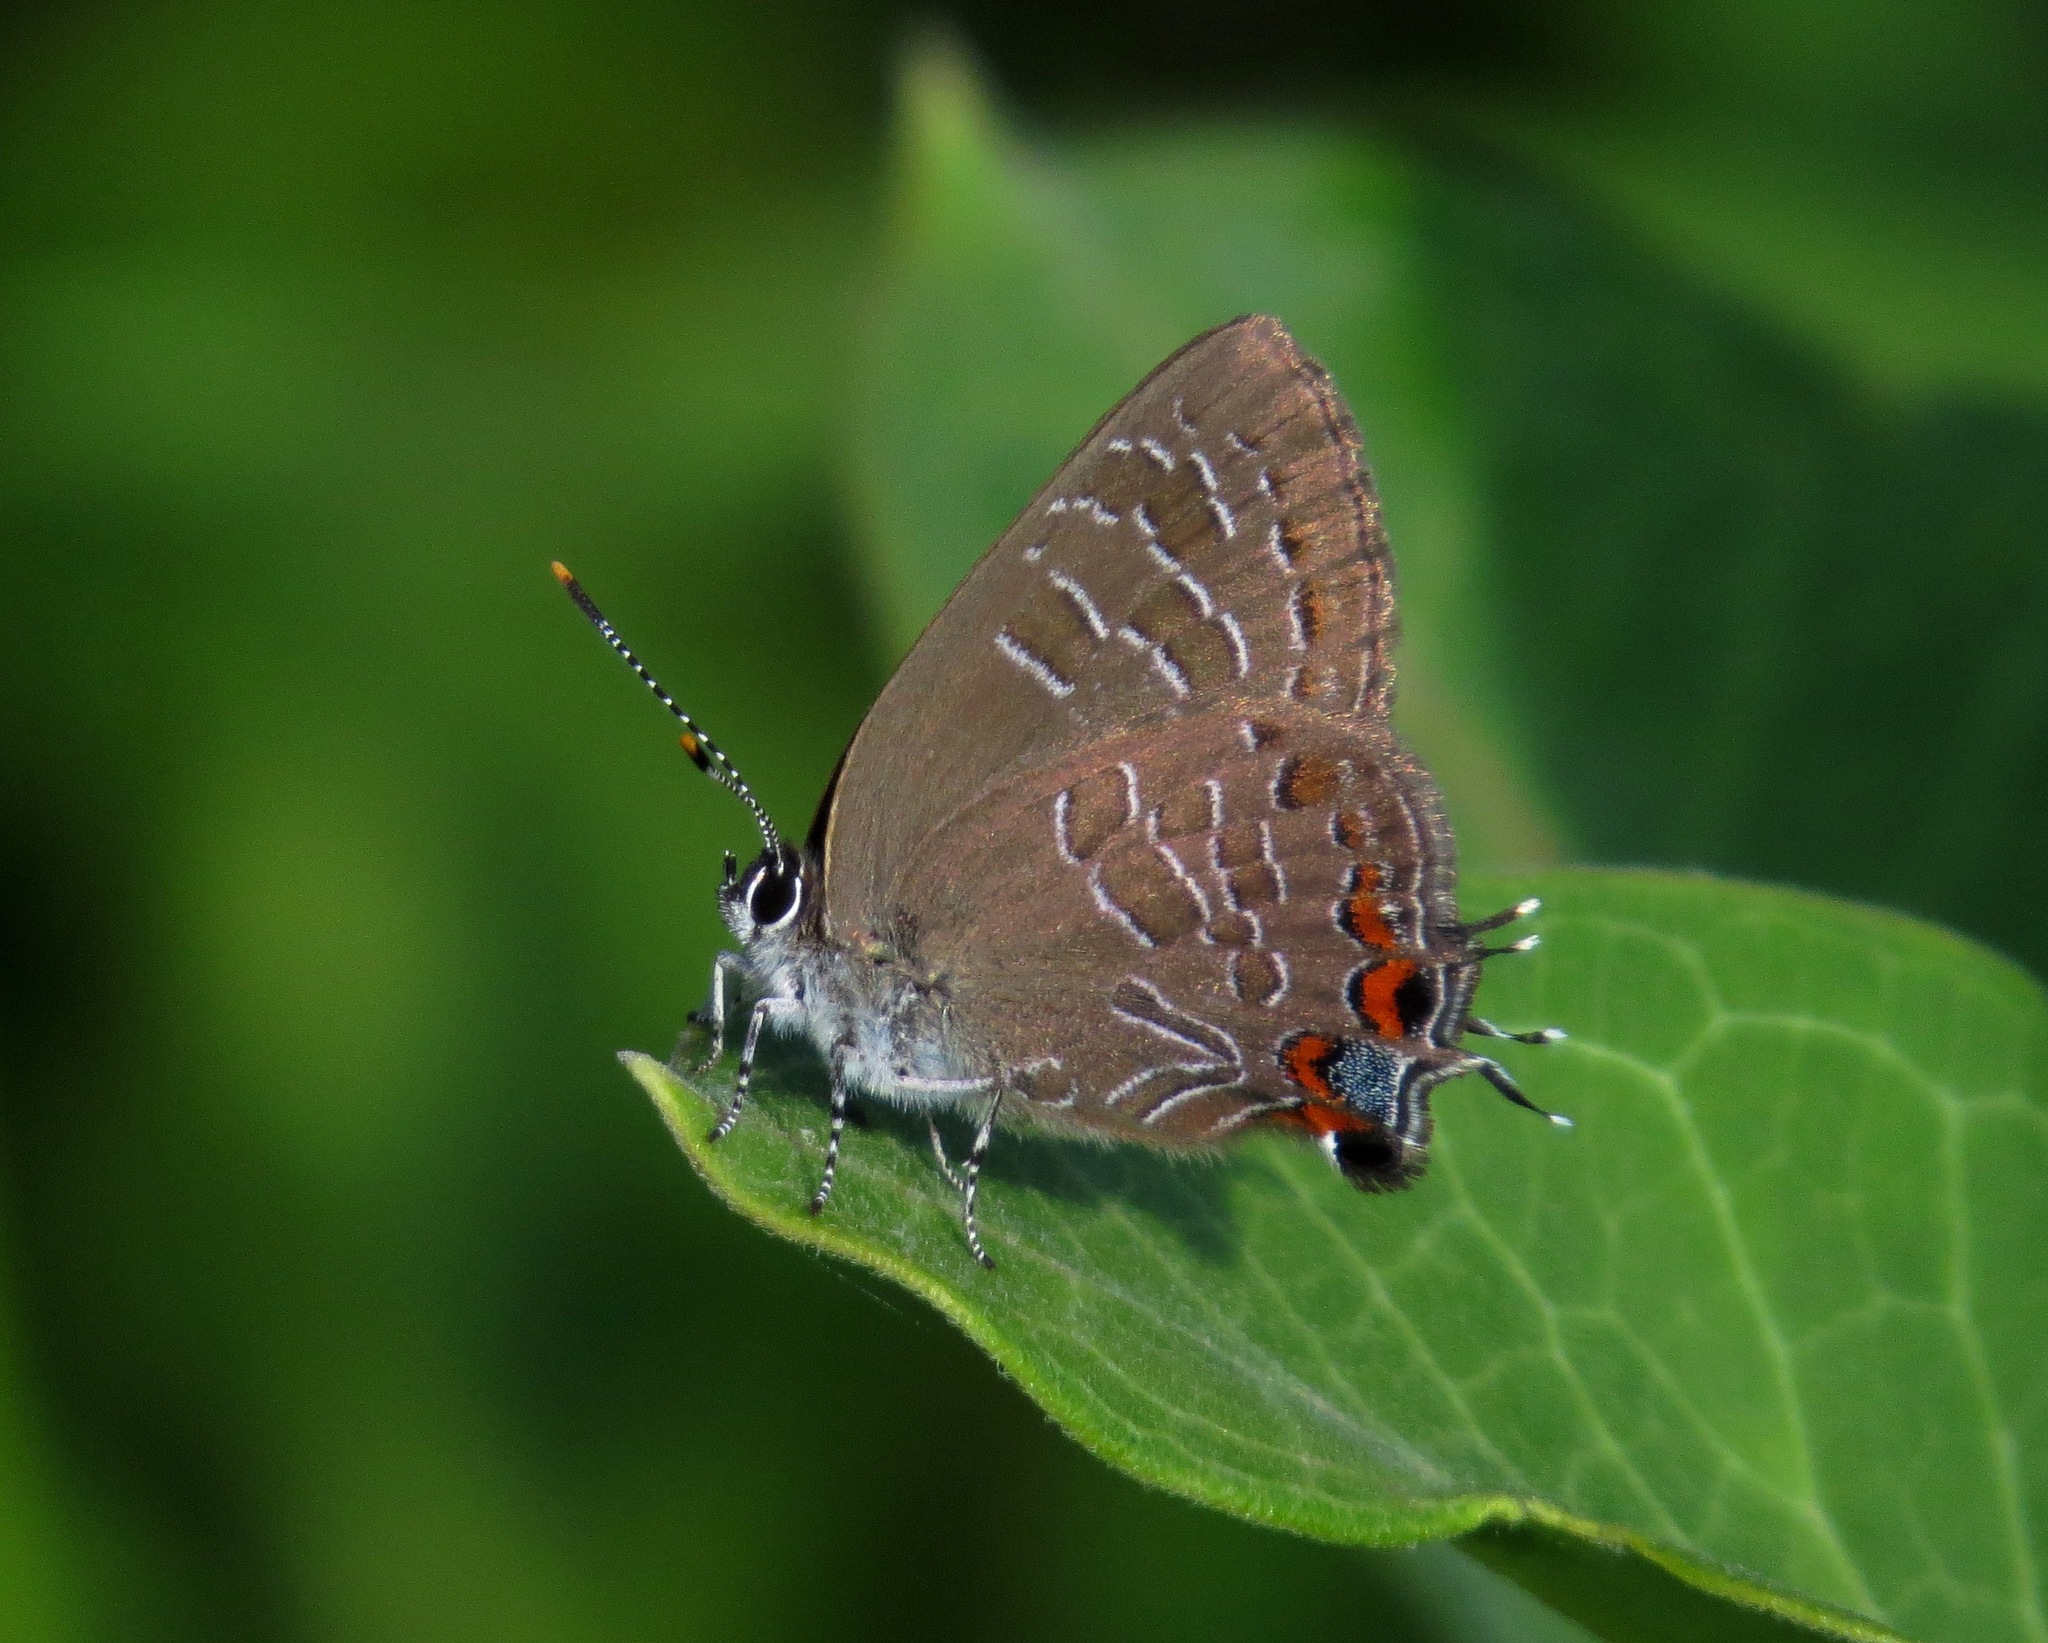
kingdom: Animalia
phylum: Arthropoda
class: Insecta
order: Lepidoptera
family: Lycaenidae
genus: Satyrium
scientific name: Satyrium liparops
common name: Striped hairstreak
